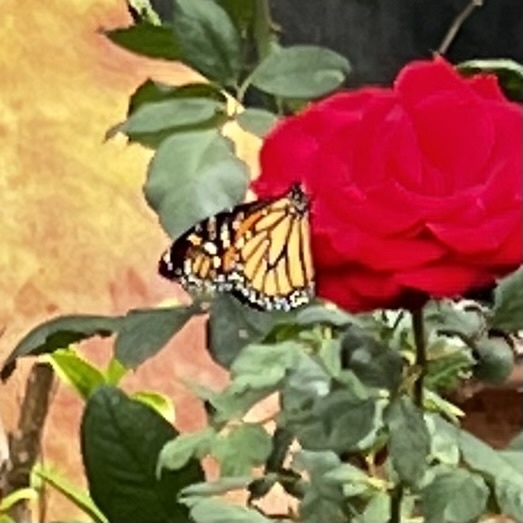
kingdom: Animalia
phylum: Arthropoda
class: Insecta
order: Lepidoptera
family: Nymphalidae
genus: Danaus
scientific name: Danaus plexippus
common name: Monarch
